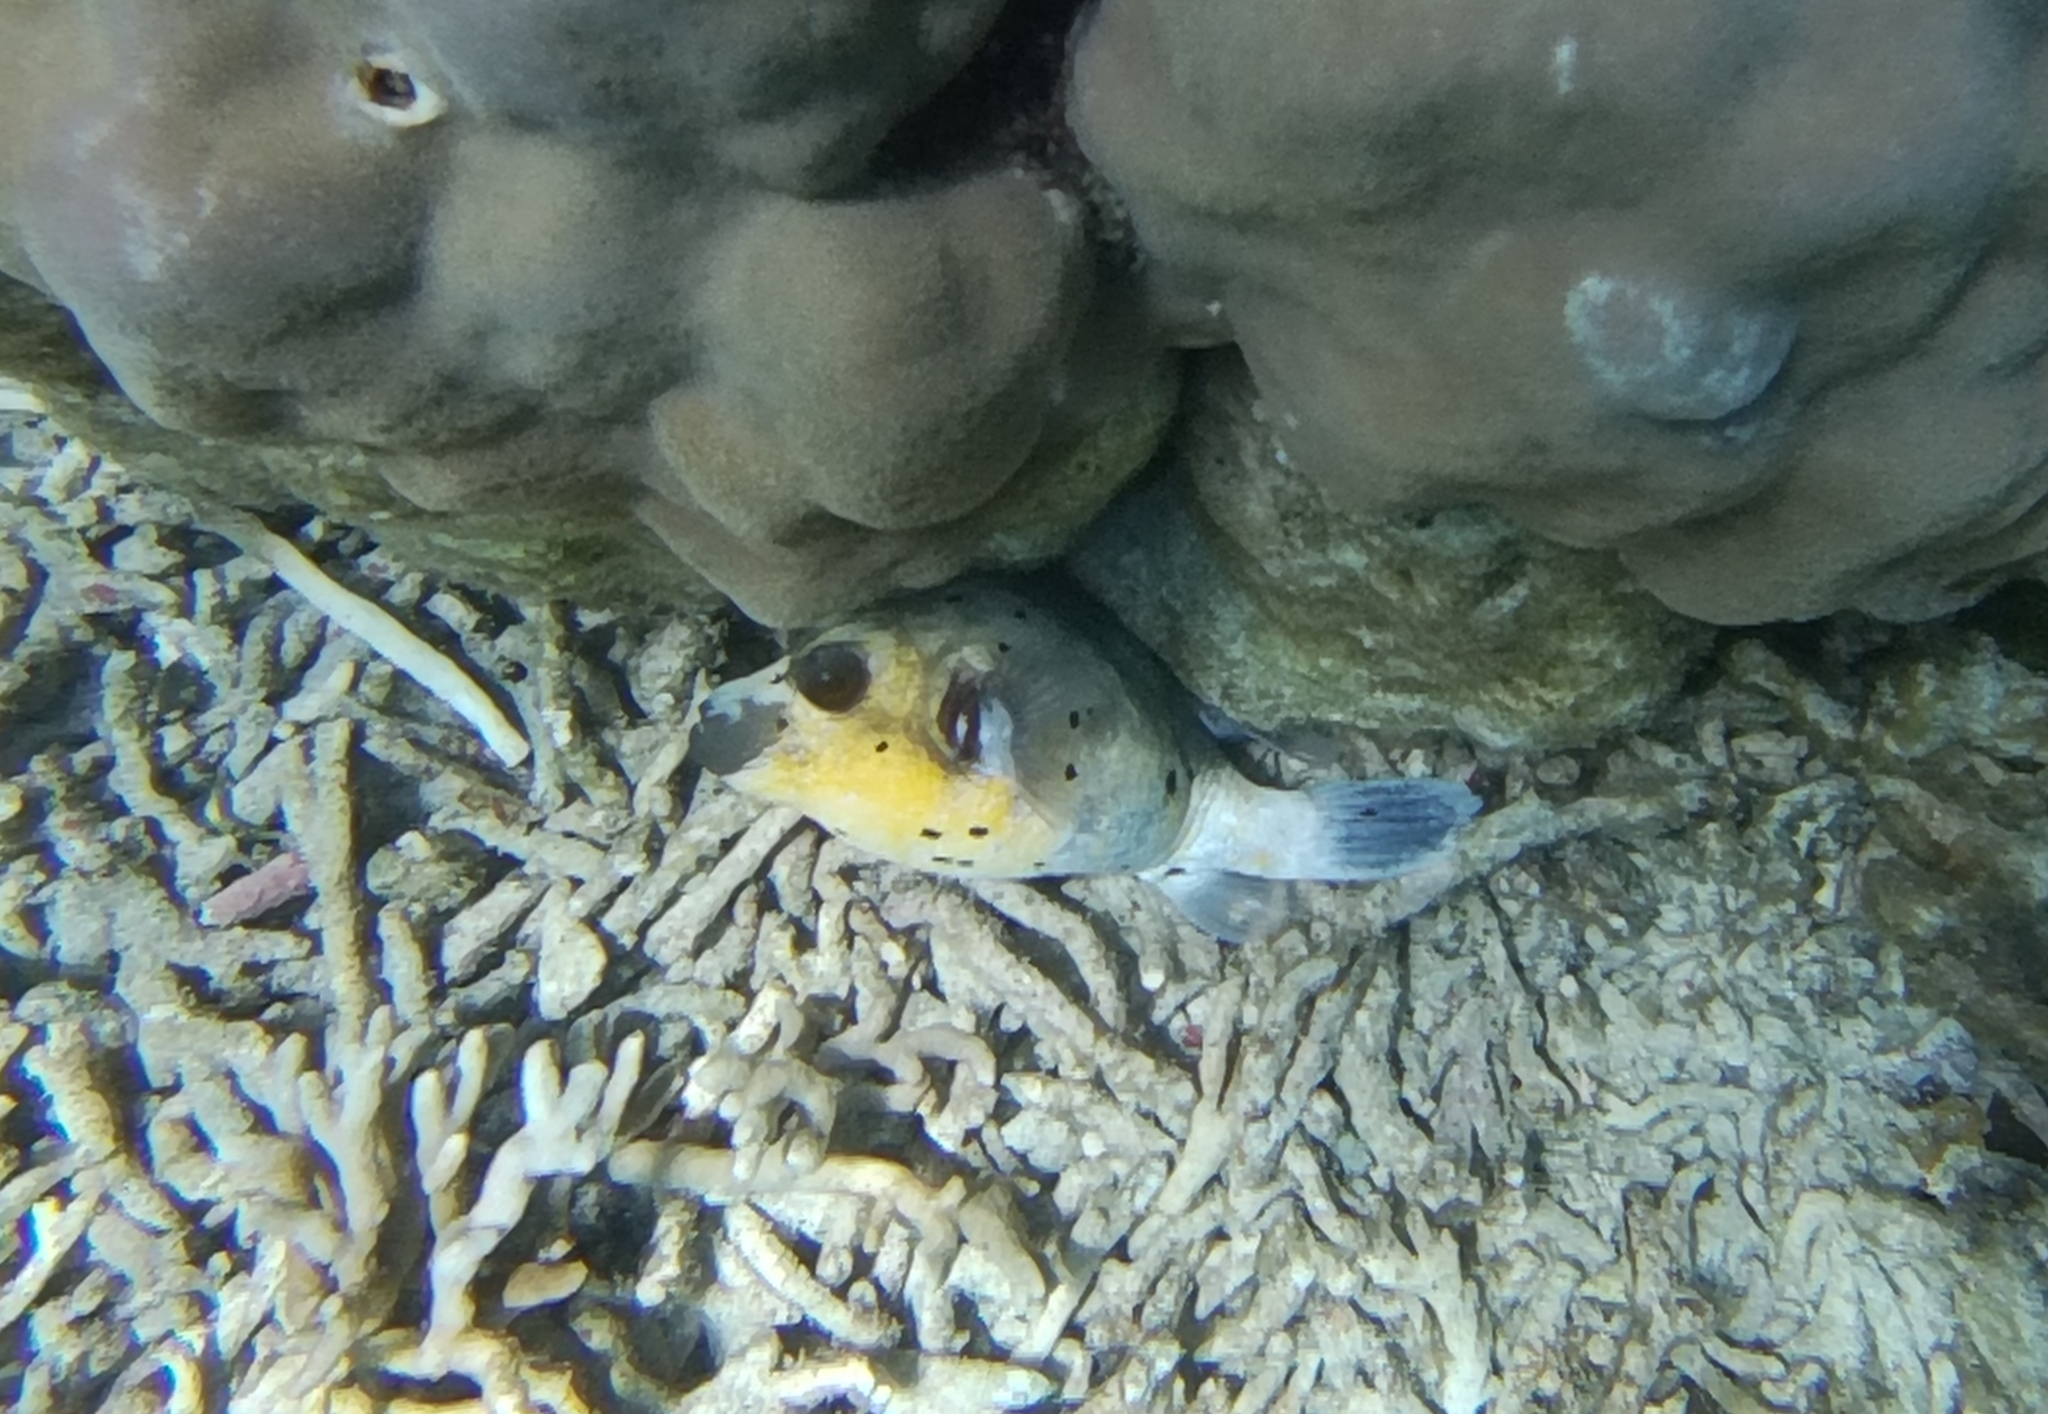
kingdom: Animalia
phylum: Chordata
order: Tetraodontiformes
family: Tetraodontidae
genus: Arothron
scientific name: Arothron nigropunctatus
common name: Black spotted blow fish
